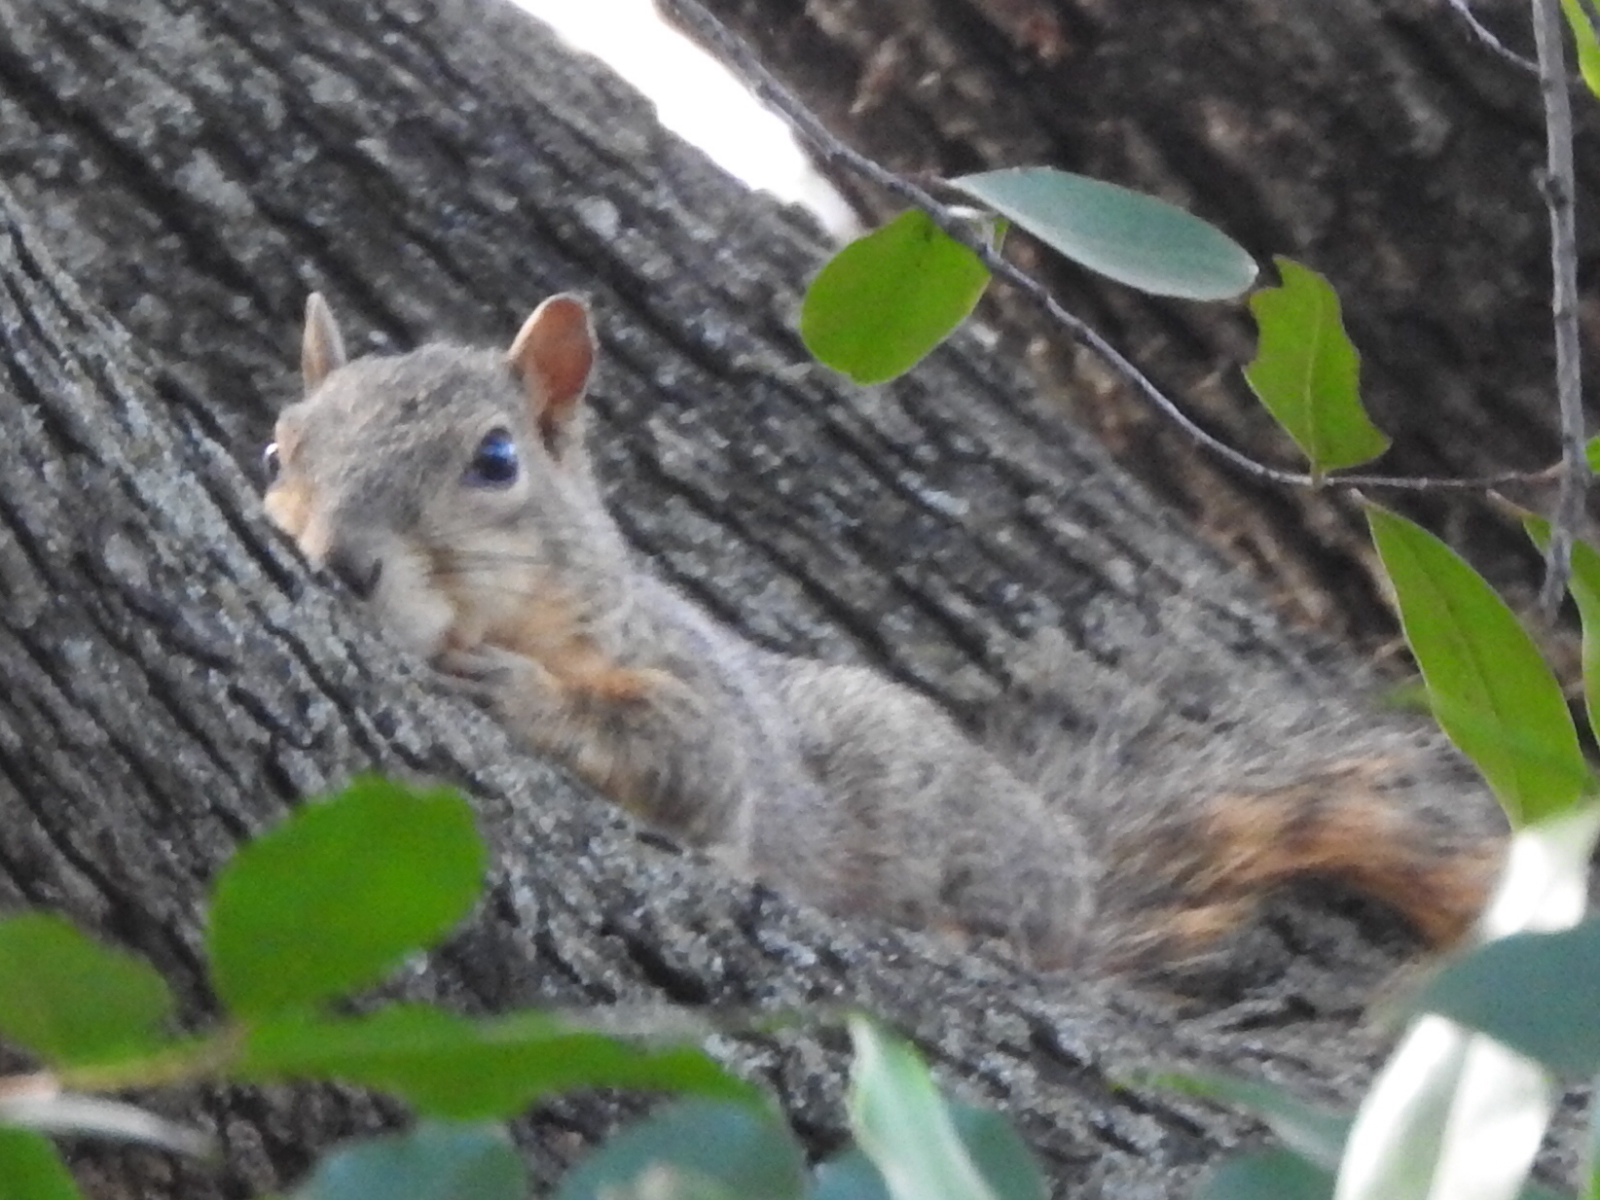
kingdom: Animalia
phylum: Chordata
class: Mammalia
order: Rodentia
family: Sciuridae
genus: Sciurus
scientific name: Sciurus niger
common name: Fox squirrel
